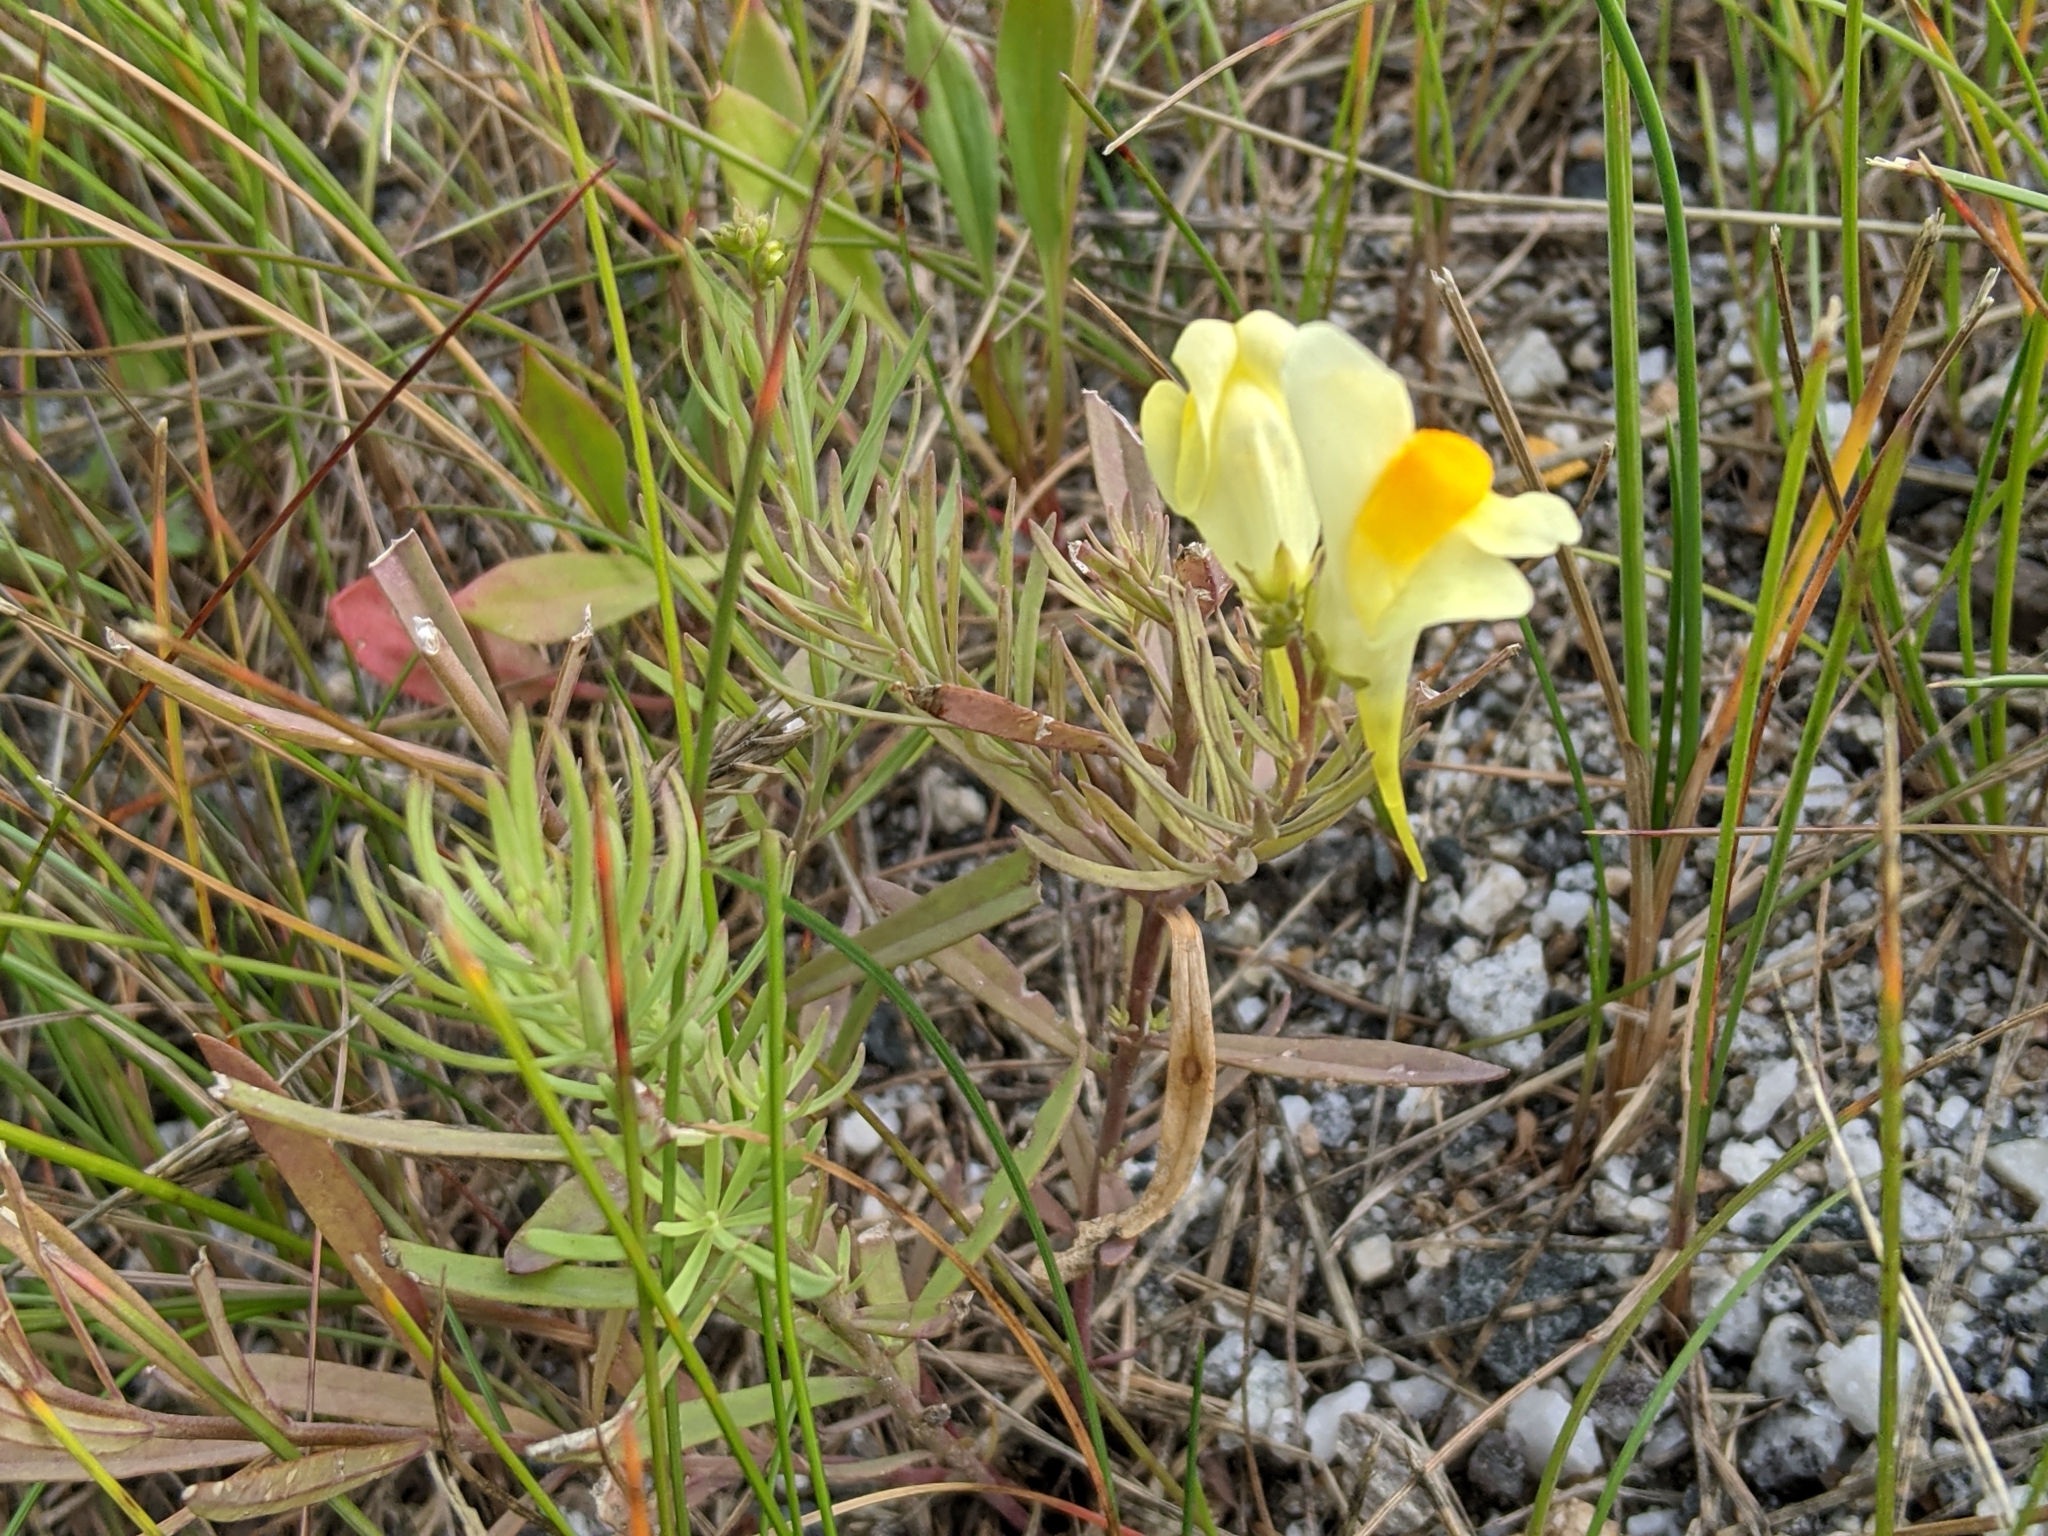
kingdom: Plantae
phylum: Tracheophyta
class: Magnoliopsida
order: Lamiales
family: Plantaginaceae
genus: Linaria
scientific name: Linaria vulgaris
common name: Butter and eggs
